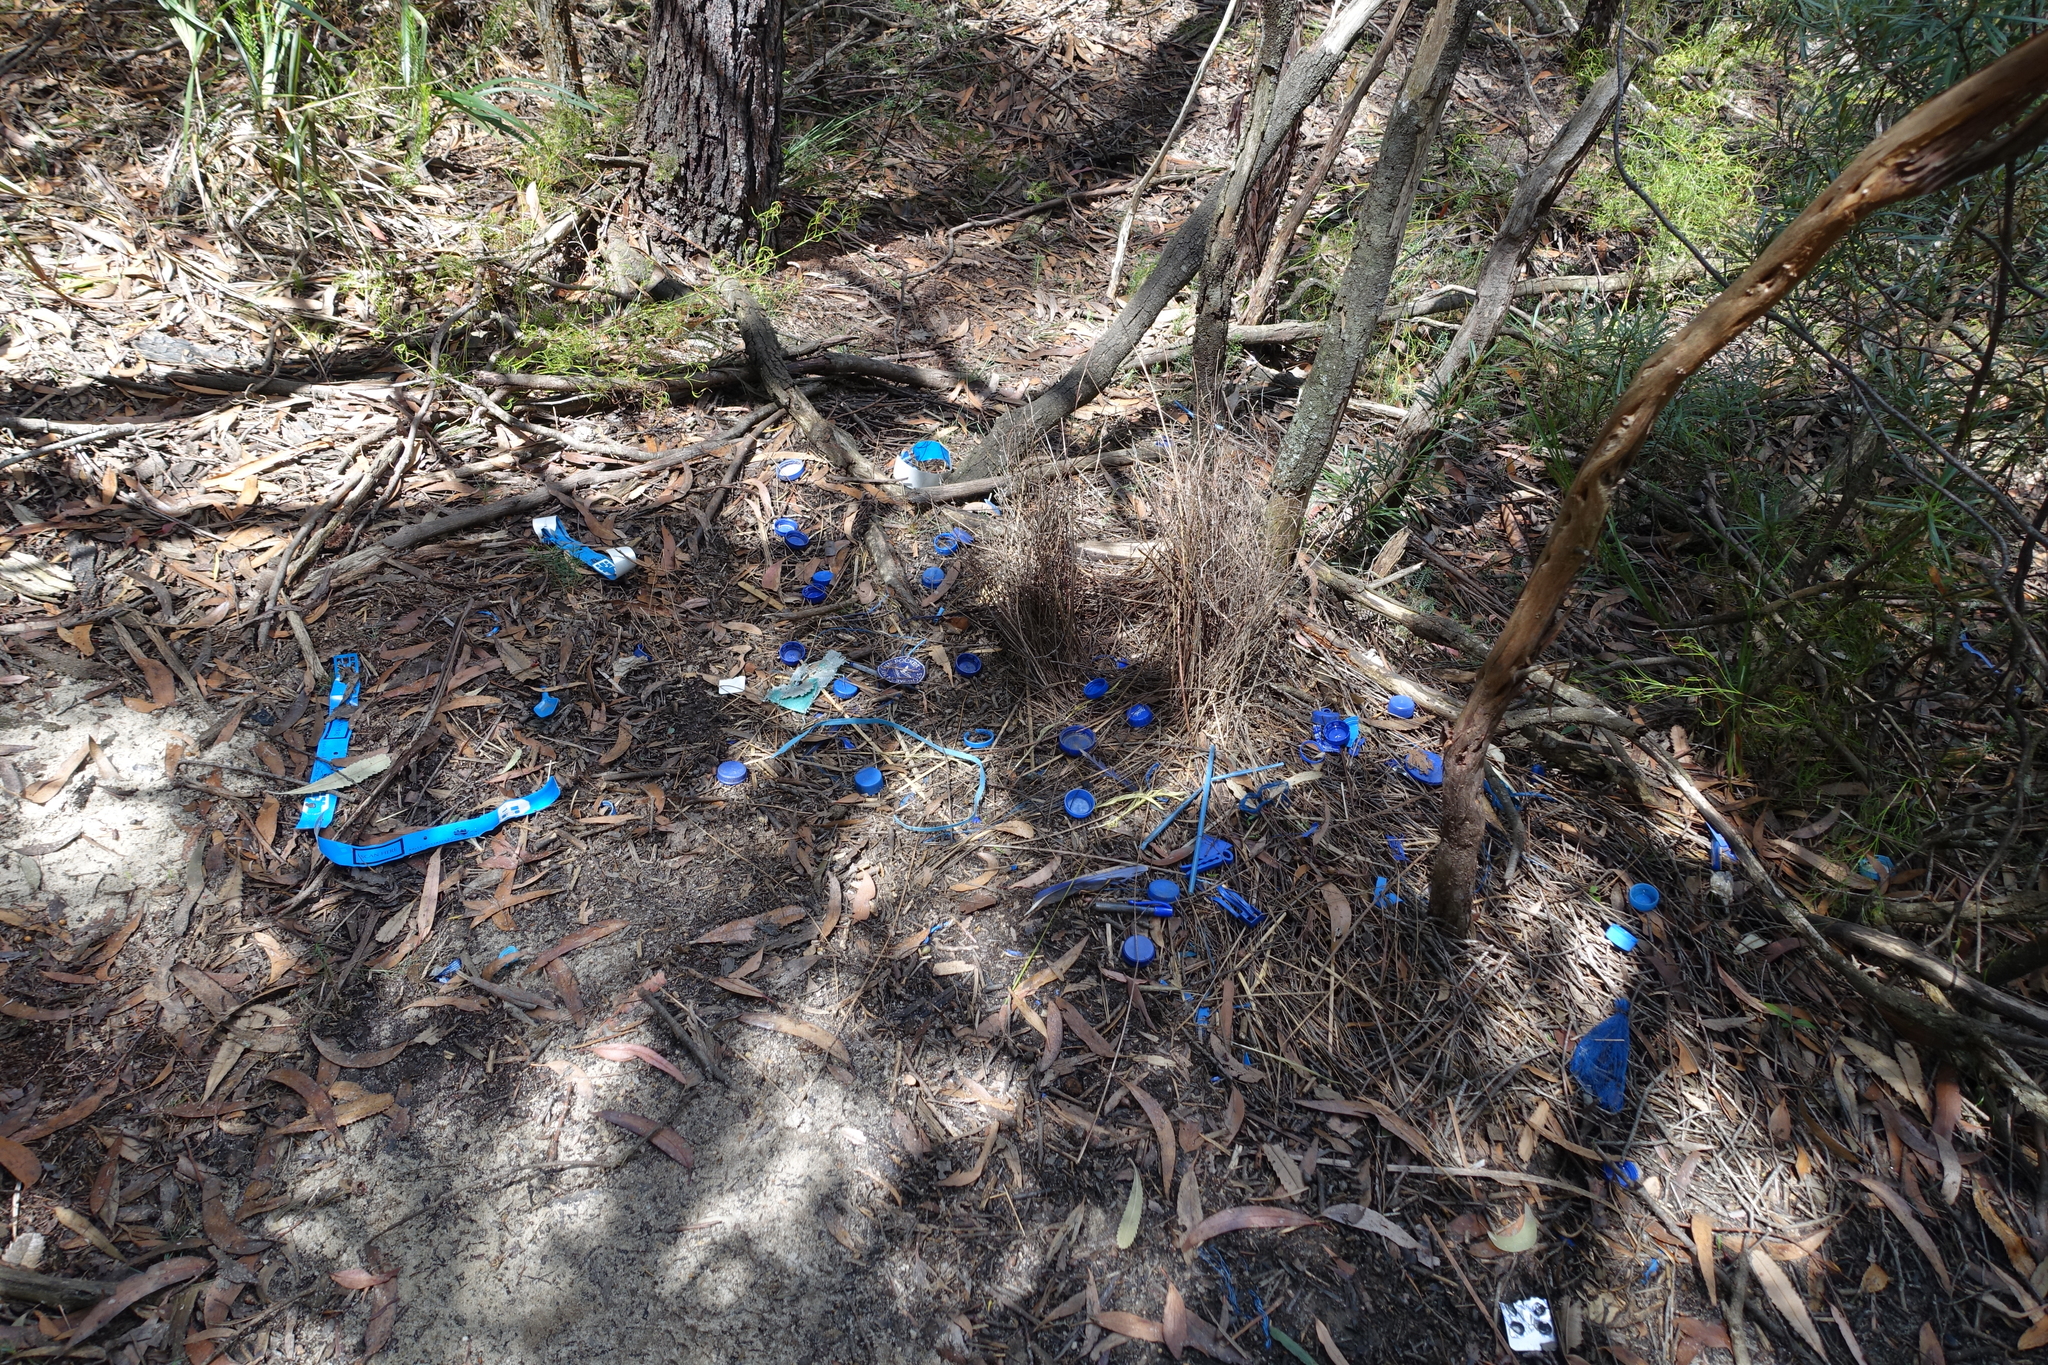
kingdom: Animalia
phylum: Chordata
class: Aves
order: Passeriformes
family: Ptilonorhynchidae
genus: Ptilonorhynchus
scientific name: Ptilonorhynchus violaceus
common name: Satin bowerbird
